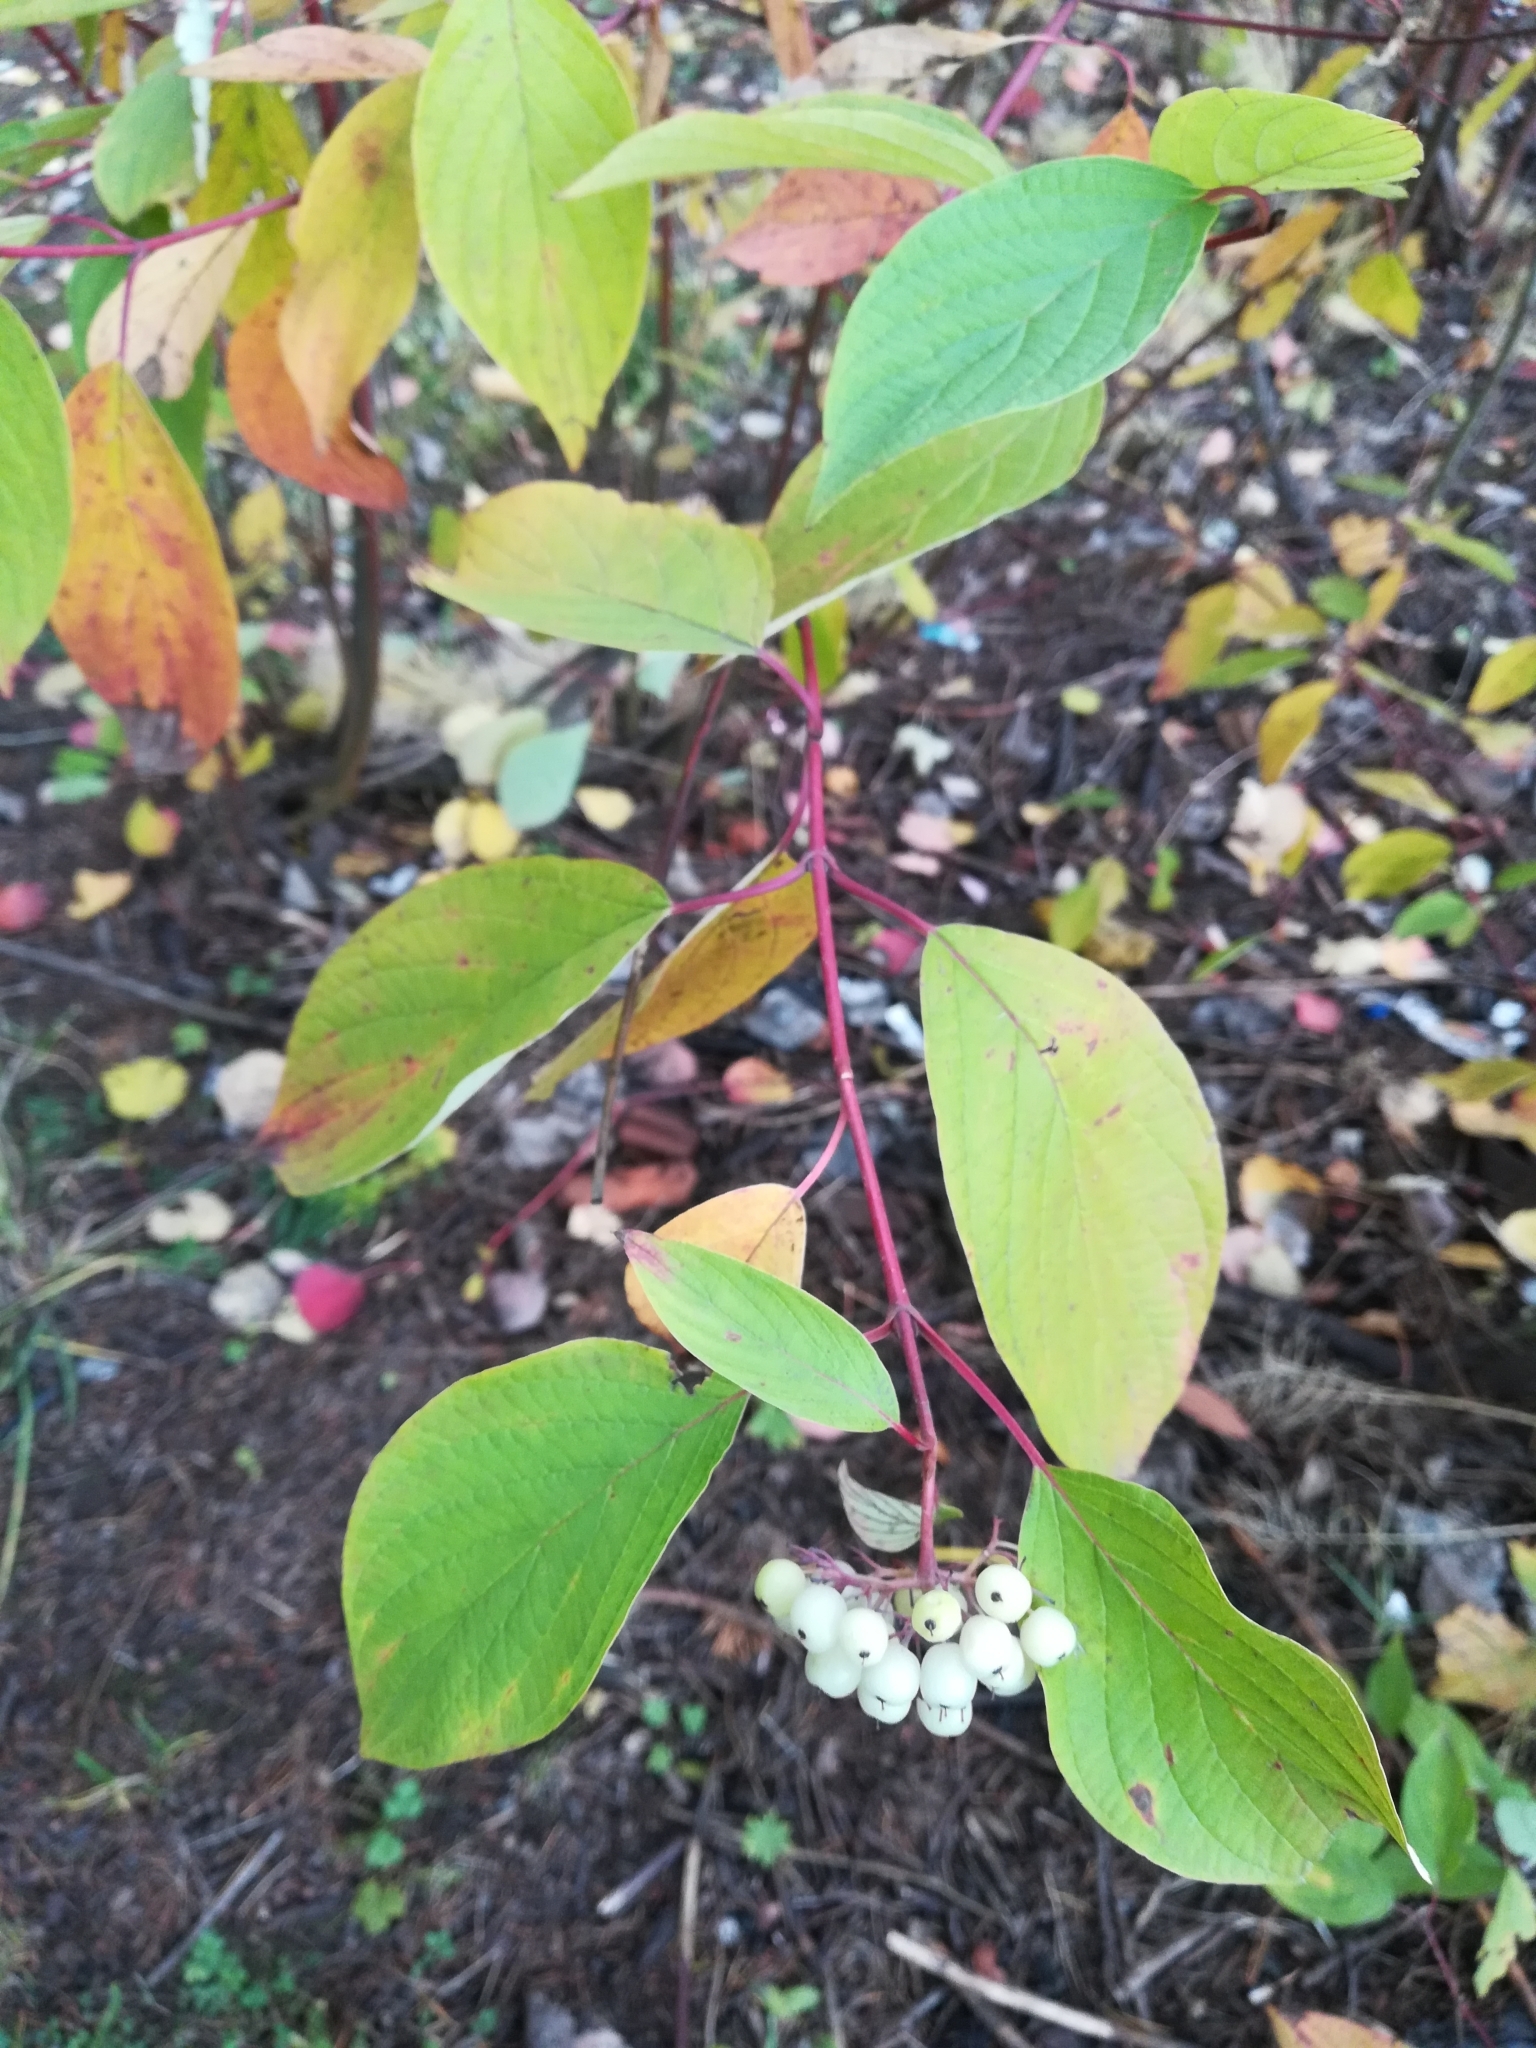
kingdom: Plantae
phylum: Tracheophyta
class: Magnoliopsida
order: Cornales
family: Cornaceae
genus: Cornus
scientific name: Cornus alba
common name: White dogwood
